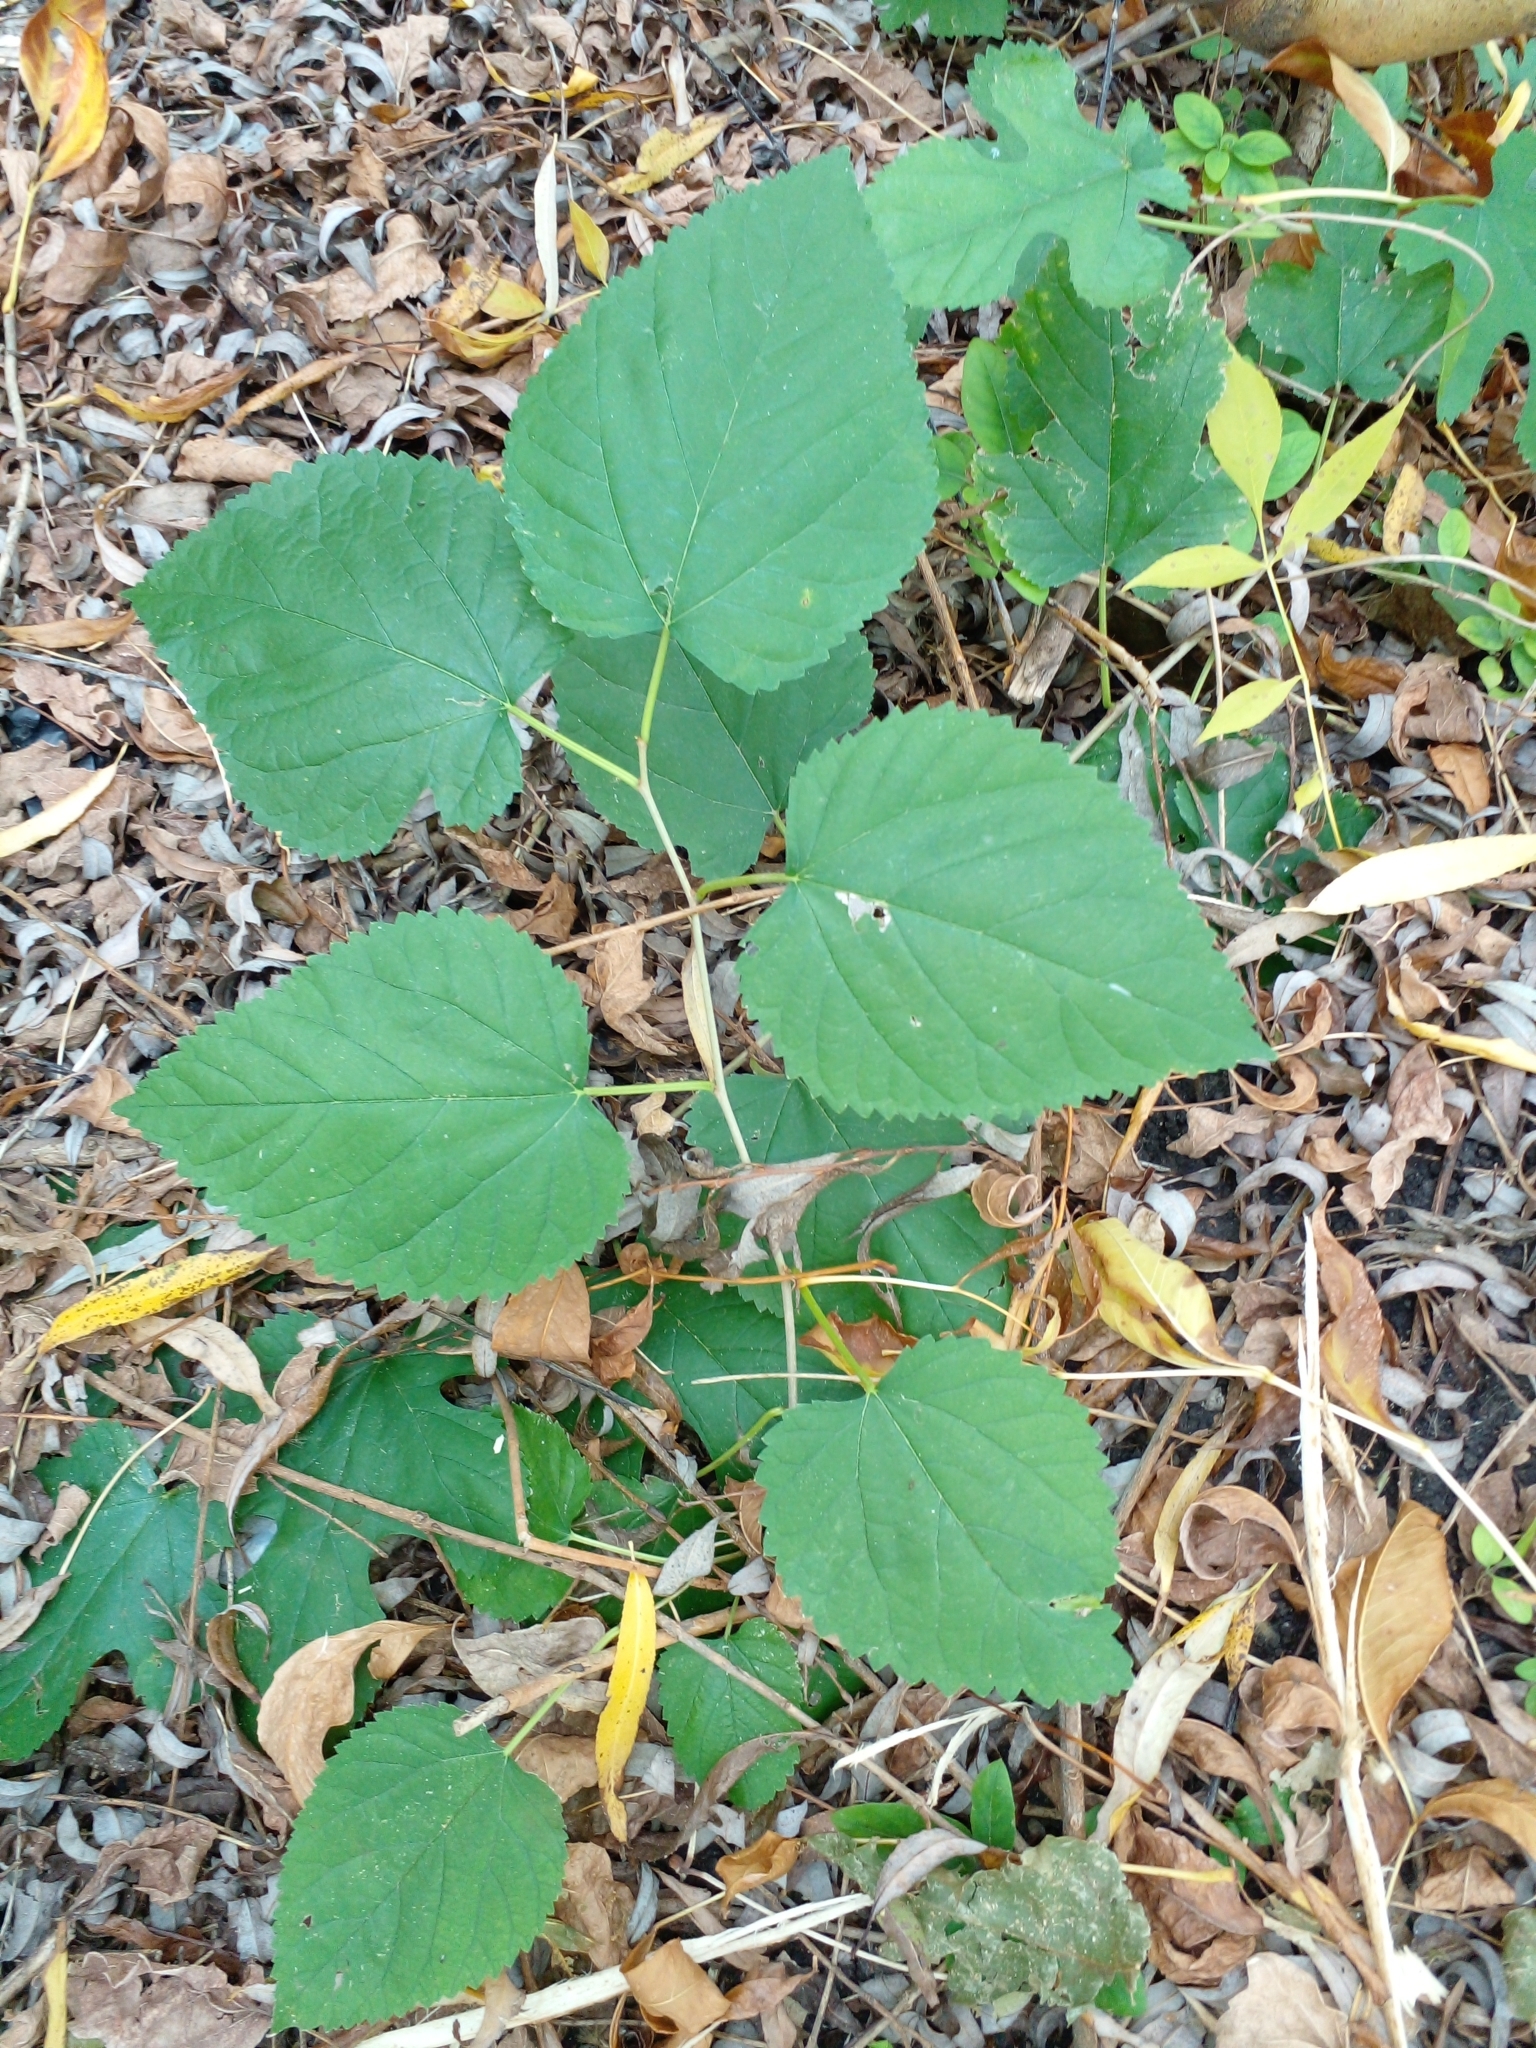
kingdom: Plantae
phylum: Tracheophyta
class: Magnoliopsida
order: Rosales
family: Moraceae
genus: Morus
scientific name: Morus indica
